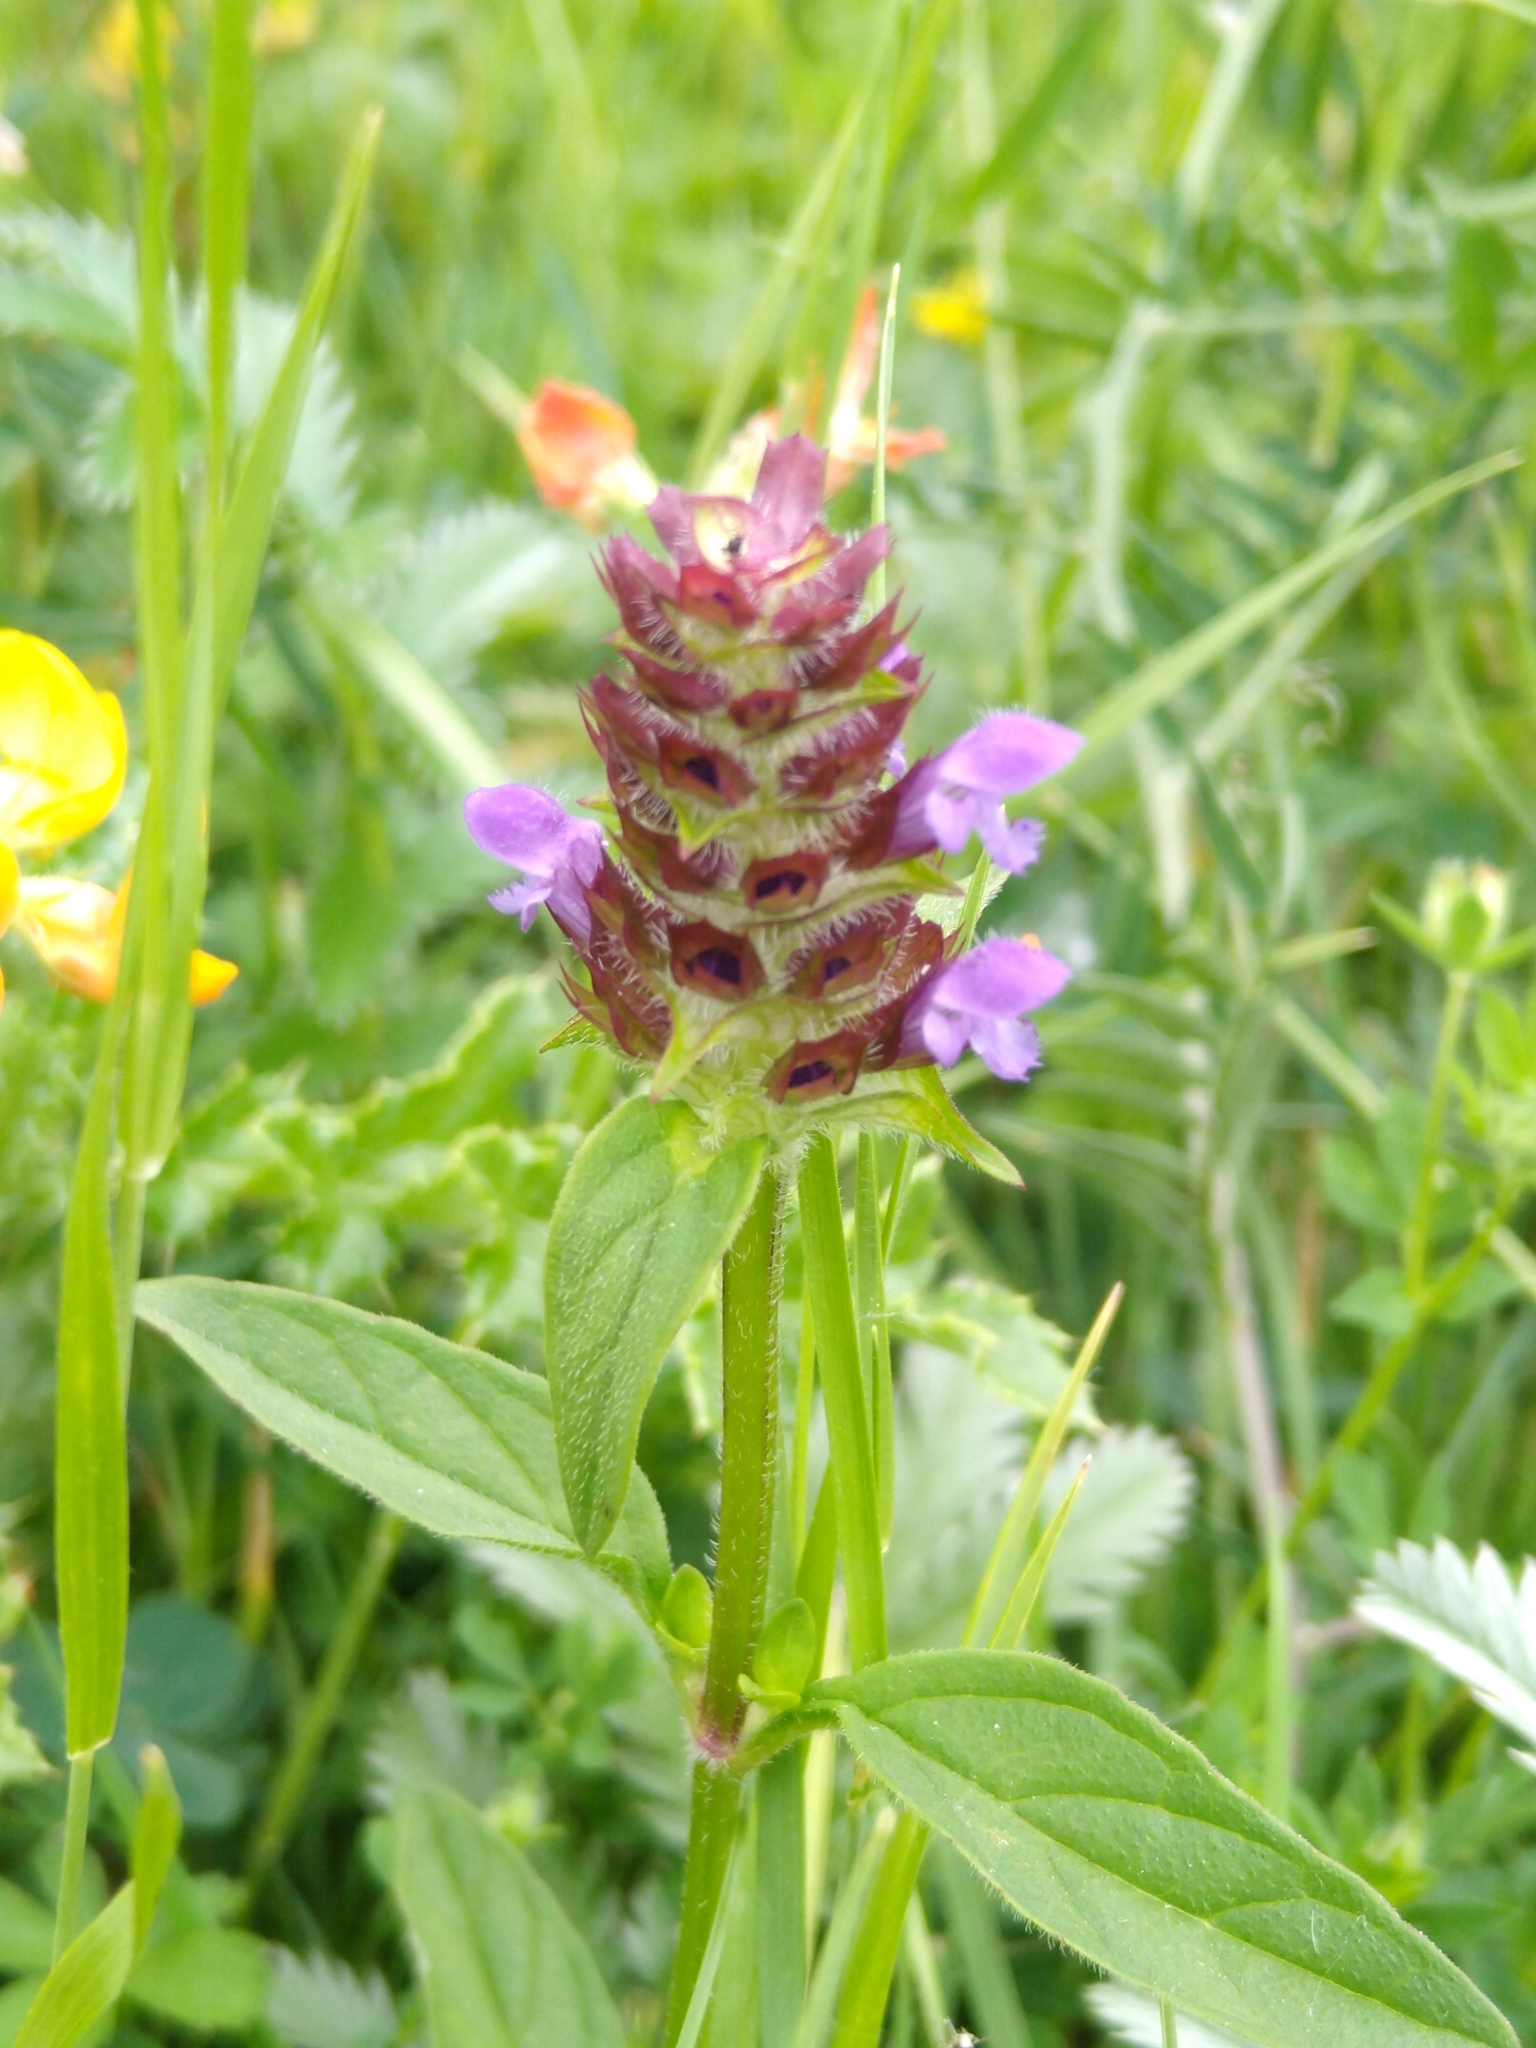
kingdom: Plantae
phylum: Tracheophyta
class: Magnoliopsida
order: Lamiales
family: Lamiaceae
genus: Prunella
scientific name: Prunella vulgaris
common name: Heal-all
